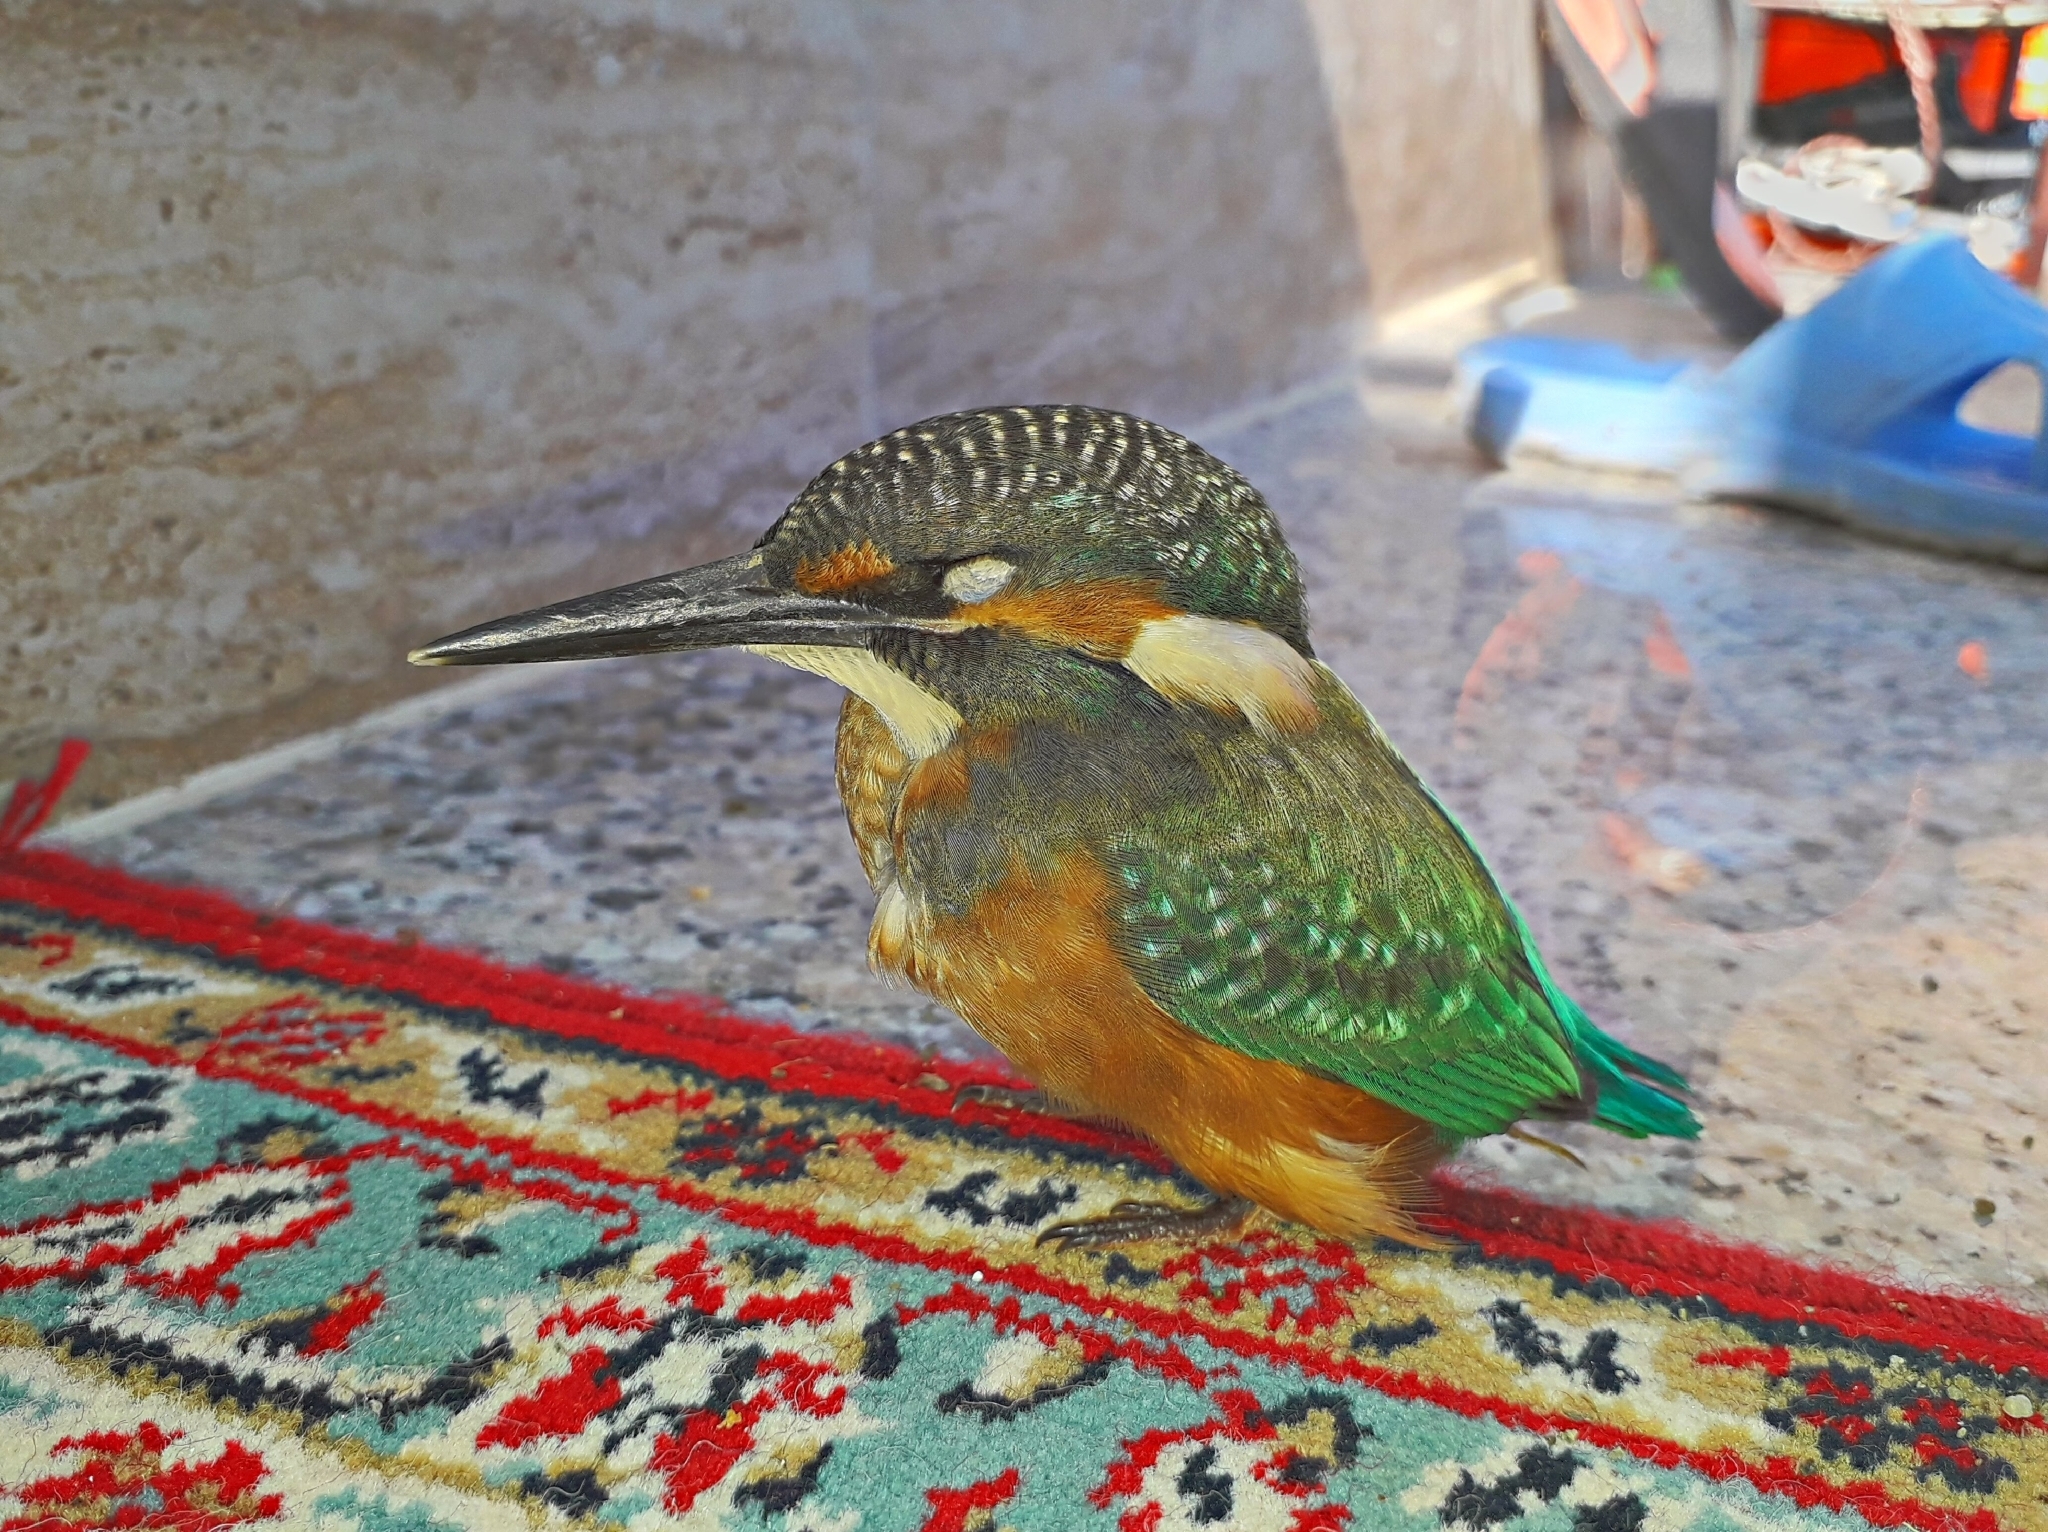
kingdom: Animalia
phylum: Chordata
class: Aves
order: Coraciiformes
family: Alcedinidae
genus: Alcedo
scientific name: Alcedo atthis
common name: Common kingfisher
